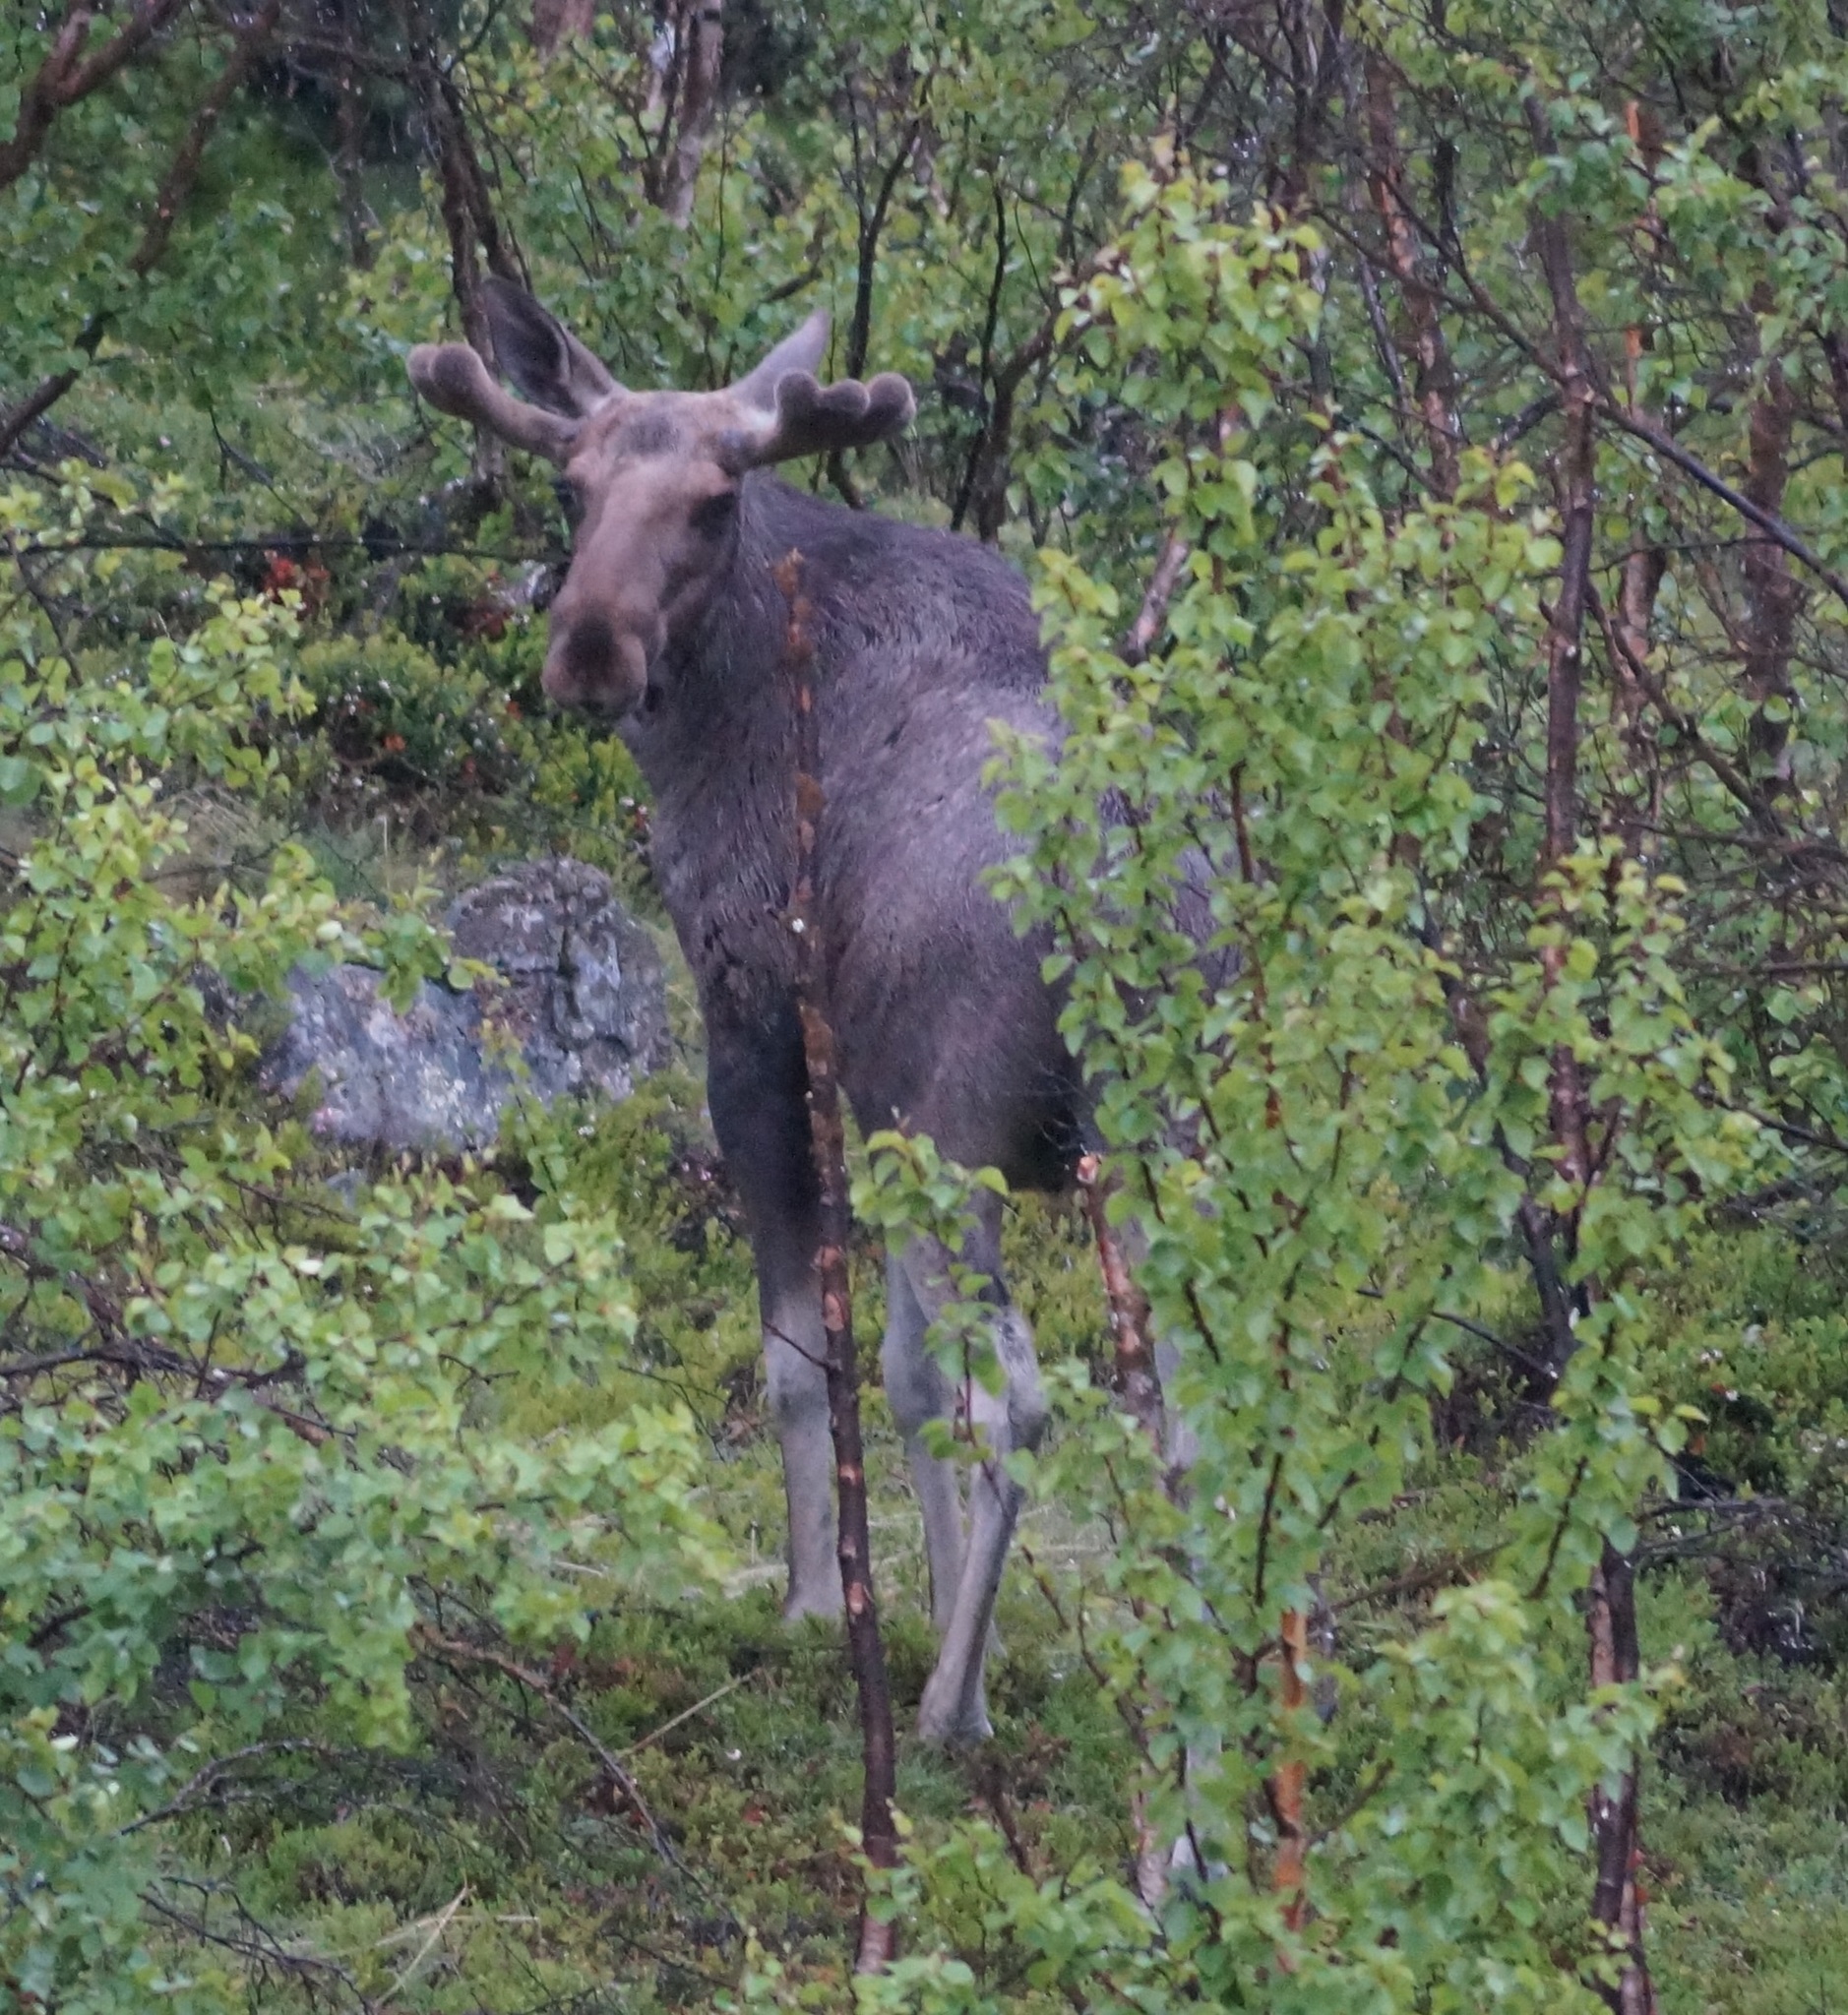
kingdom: Animalia
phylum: Chordata
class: Mammalia
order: Artiodactyla
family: Cervidae
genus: Alces
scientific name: Alces alces
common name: Moose
